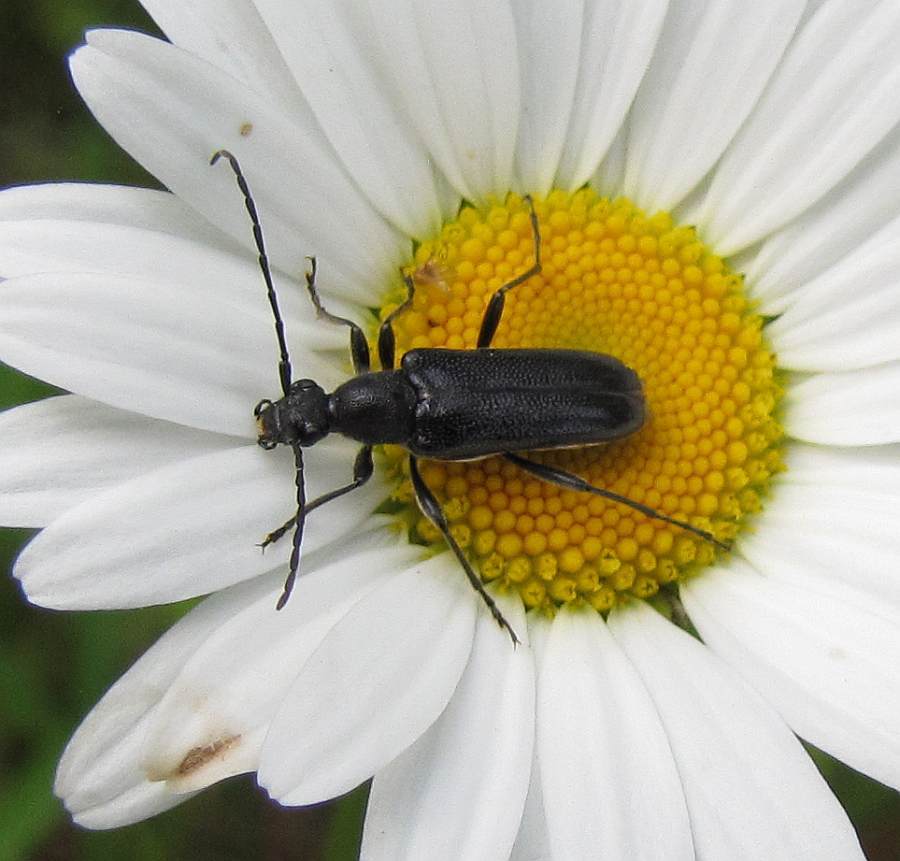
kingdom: Animalia
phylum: Arthropoda
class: Insecta
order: Coleoptera
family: Cerambycidae
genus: Anoplodera
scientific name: Anoplodera pubera
